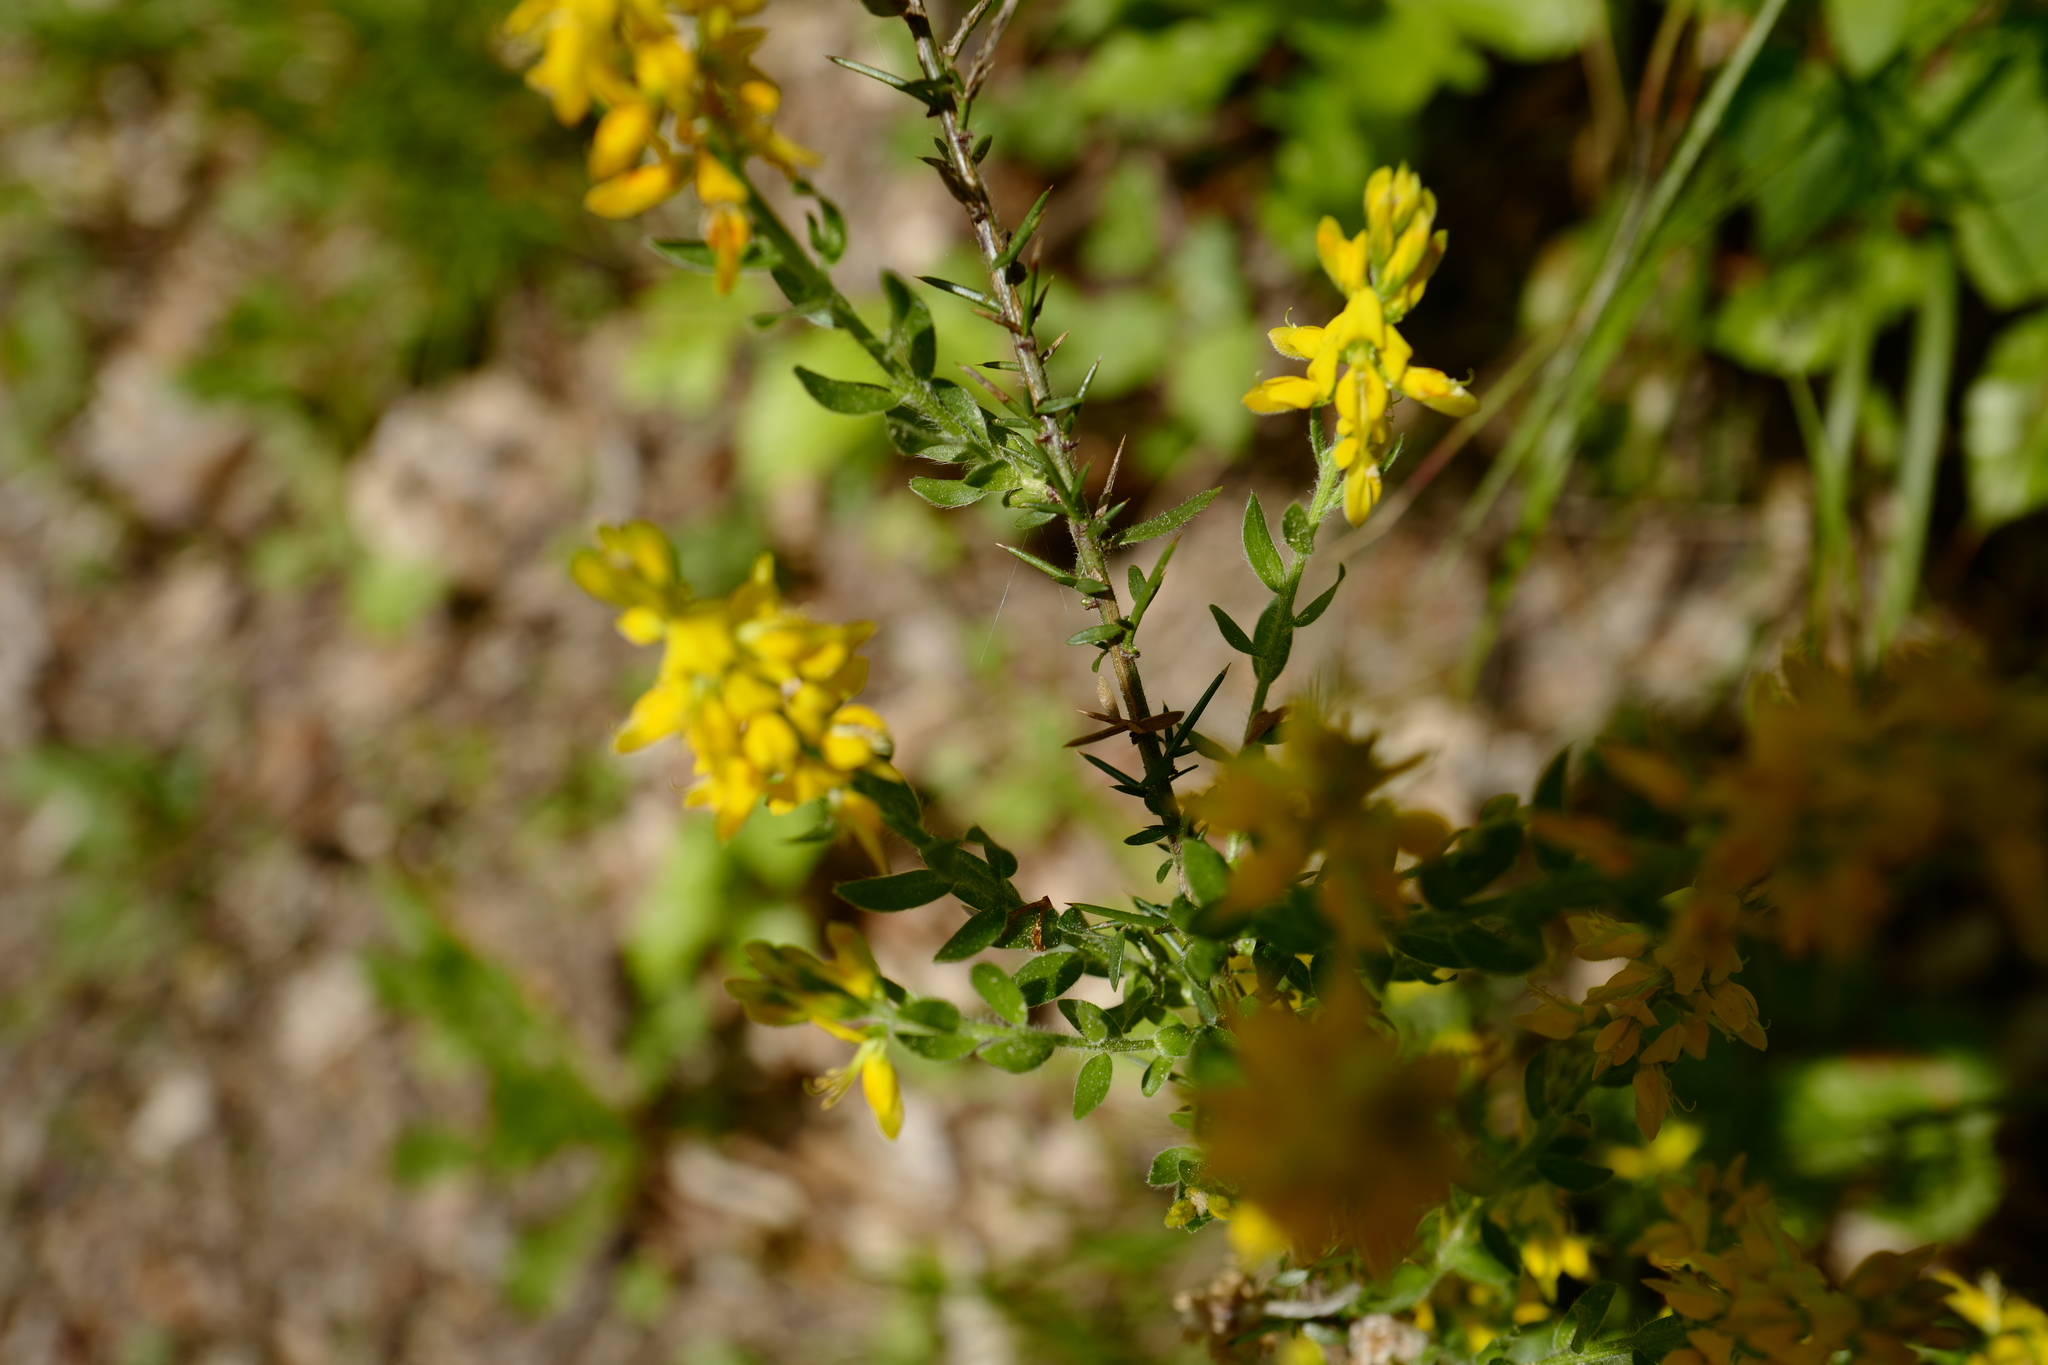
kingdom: Plantae
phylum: Tracheophyta
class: Magnoliopsida
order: Fabales
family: Fabaceae
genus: Genista
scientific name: Genista germanica
